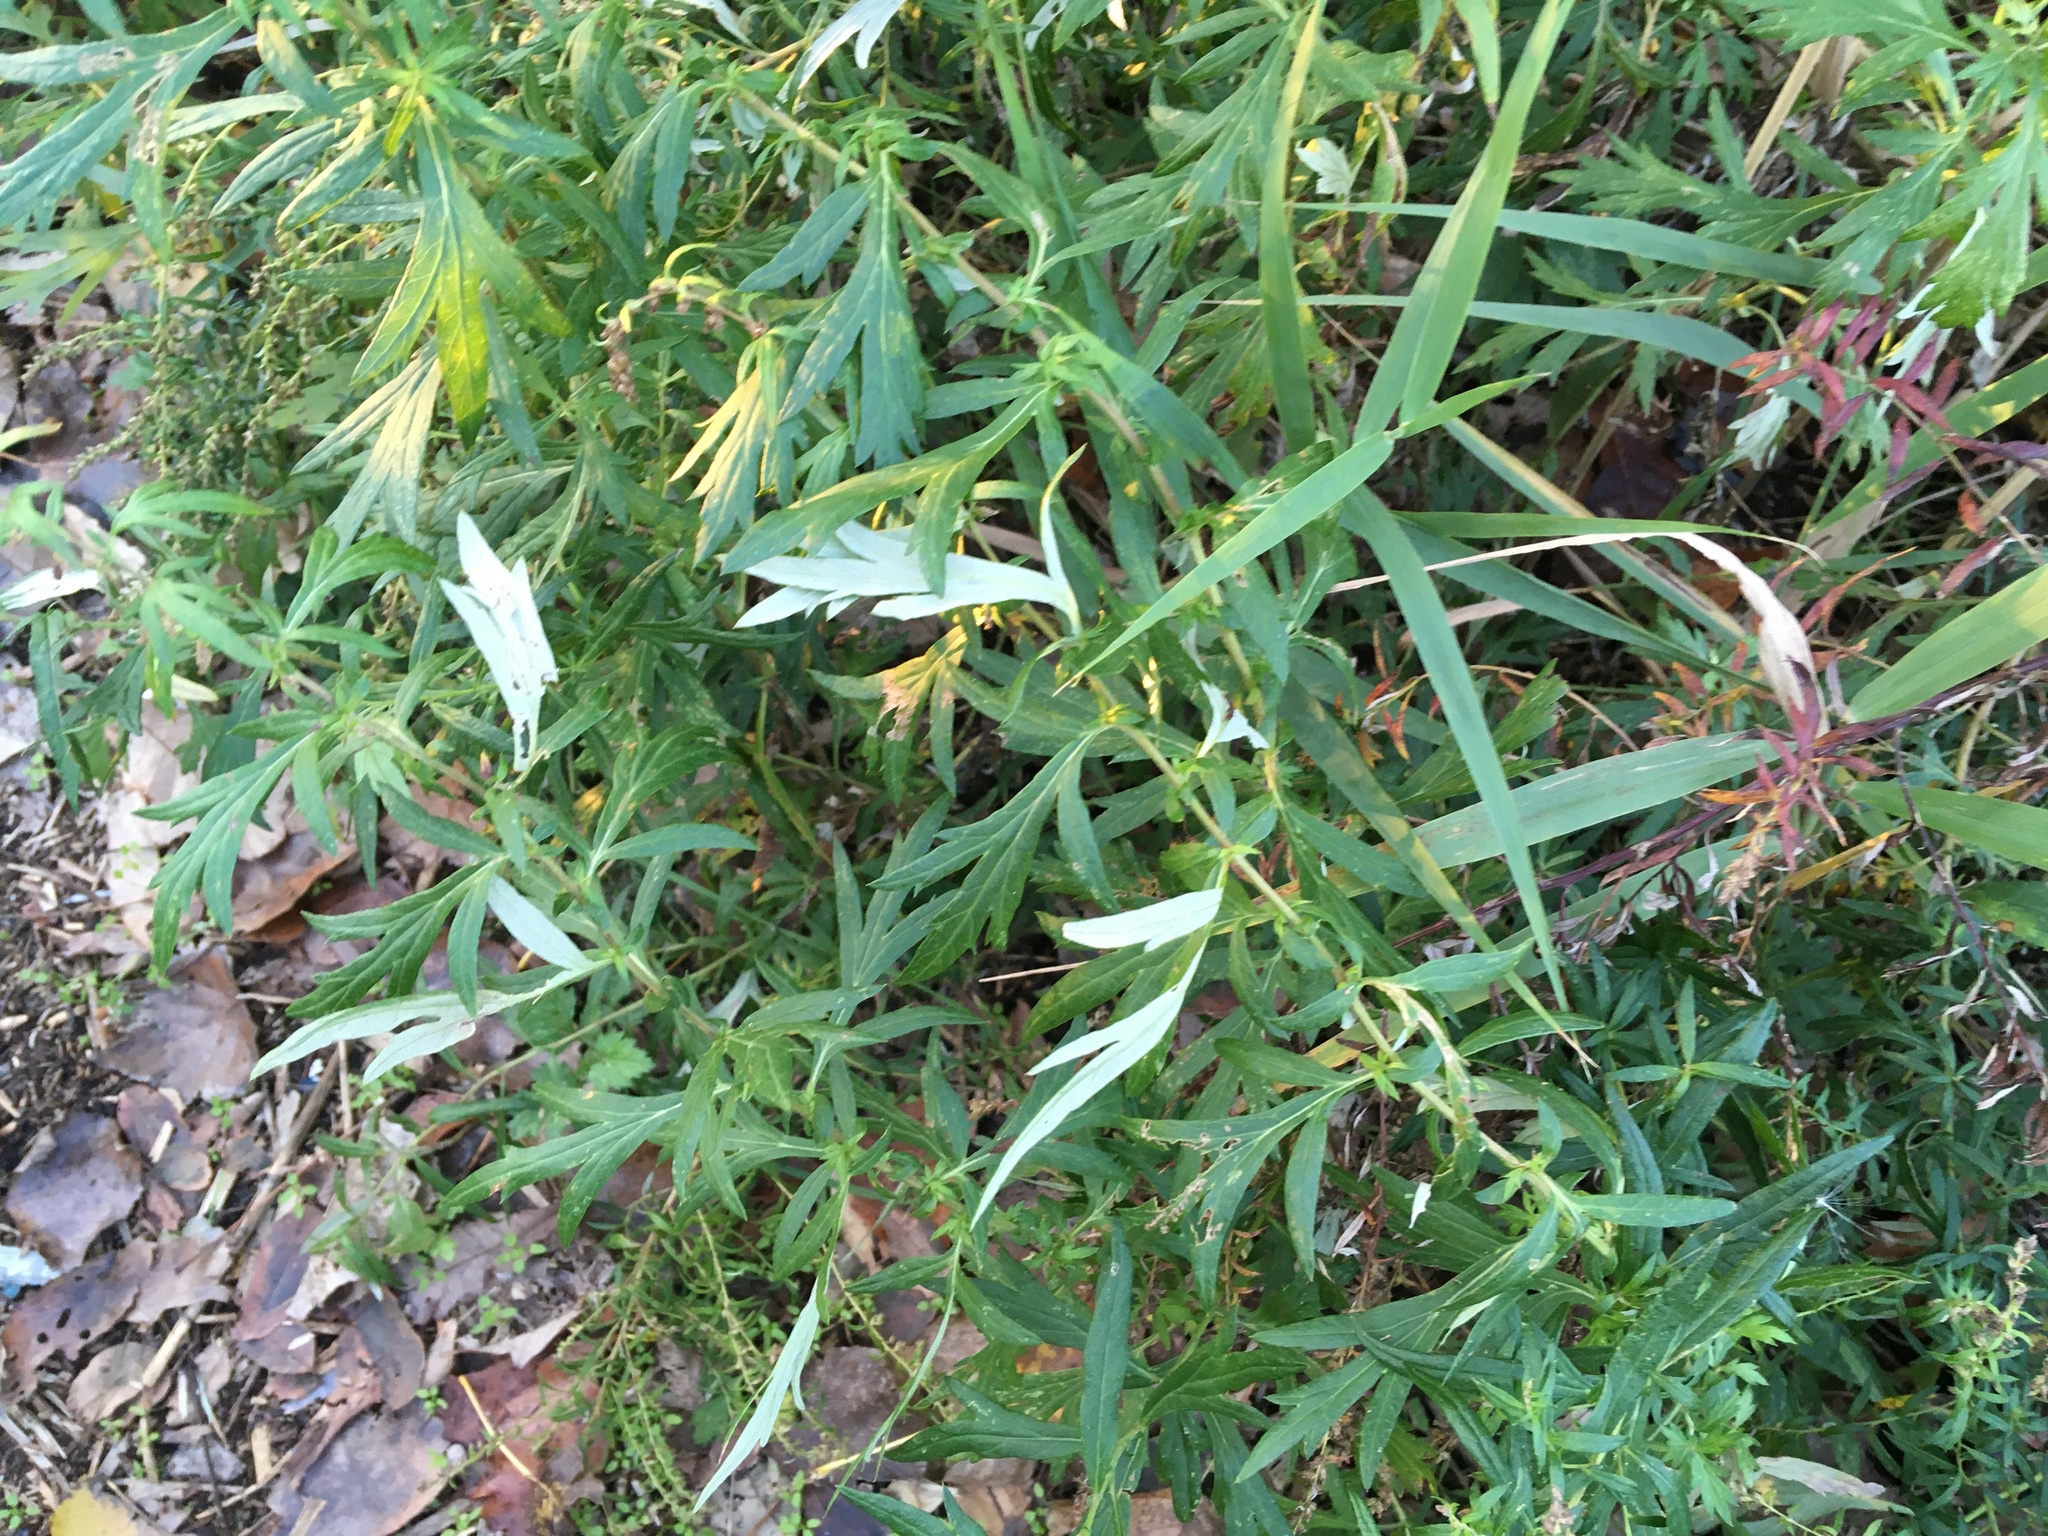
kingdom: Plantae
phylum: Tracheophyta
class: Magnoliopsida
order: Asterales
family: Asteraceae
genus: Artemisia
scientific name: Artemisia vulgaris
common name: Mugwort
